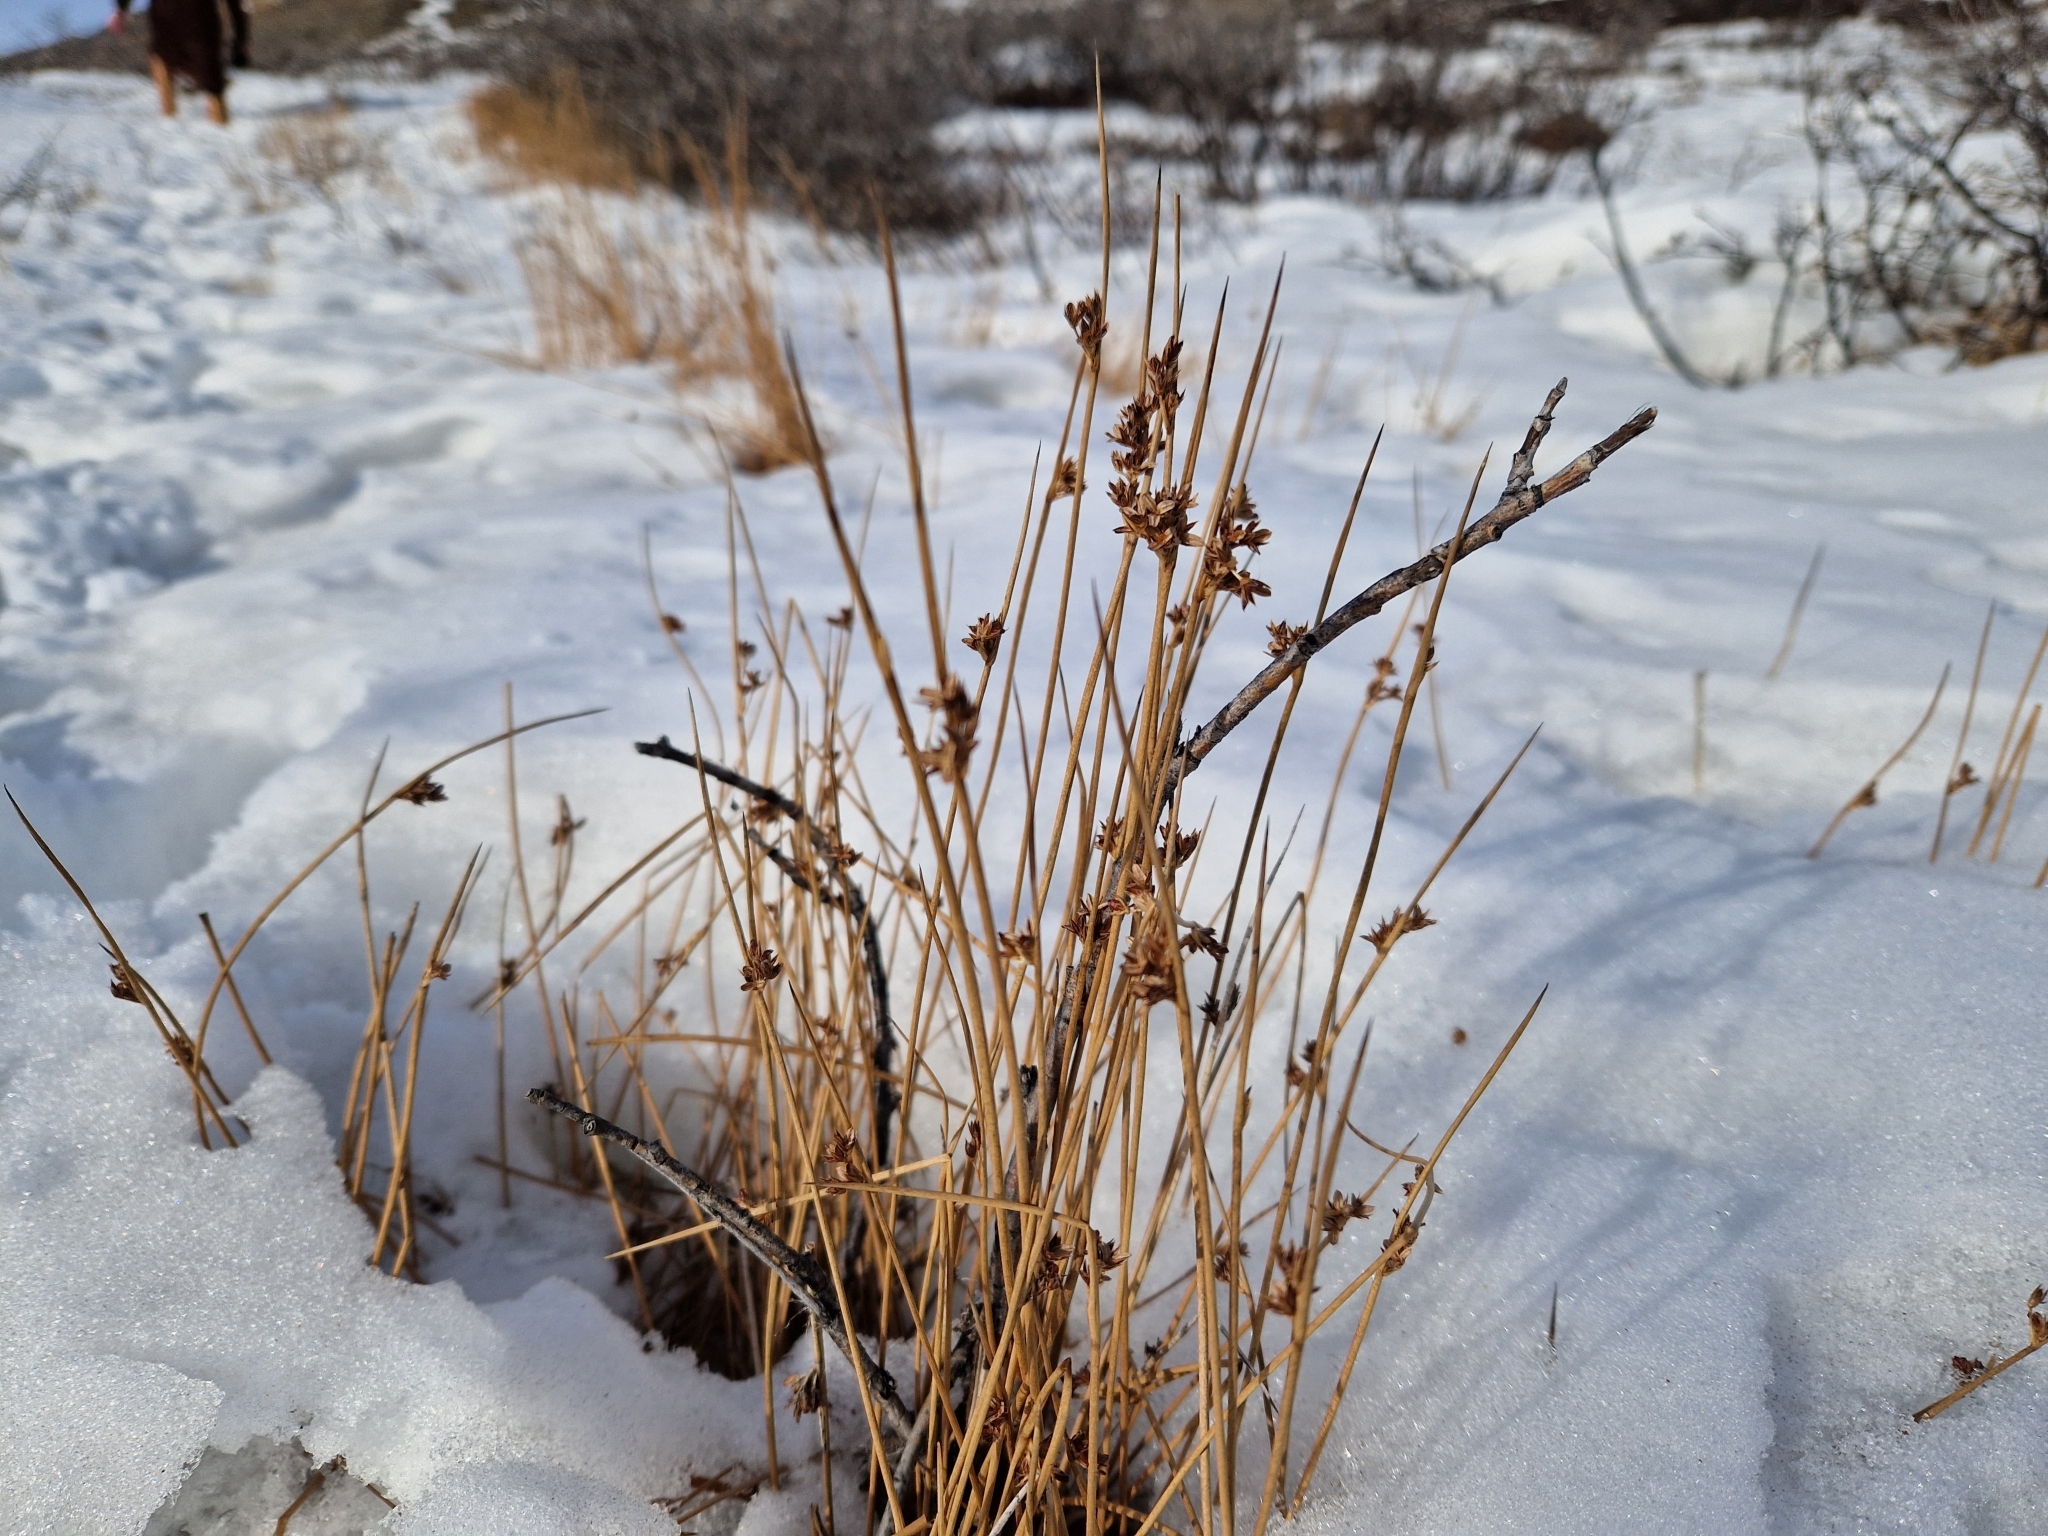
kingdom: Plantae
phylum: Tracheophyta
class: Liliopsida
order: Poales
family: Juncaceae
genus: Juncus
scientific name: Juncus arcticus
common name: Arctic rush
